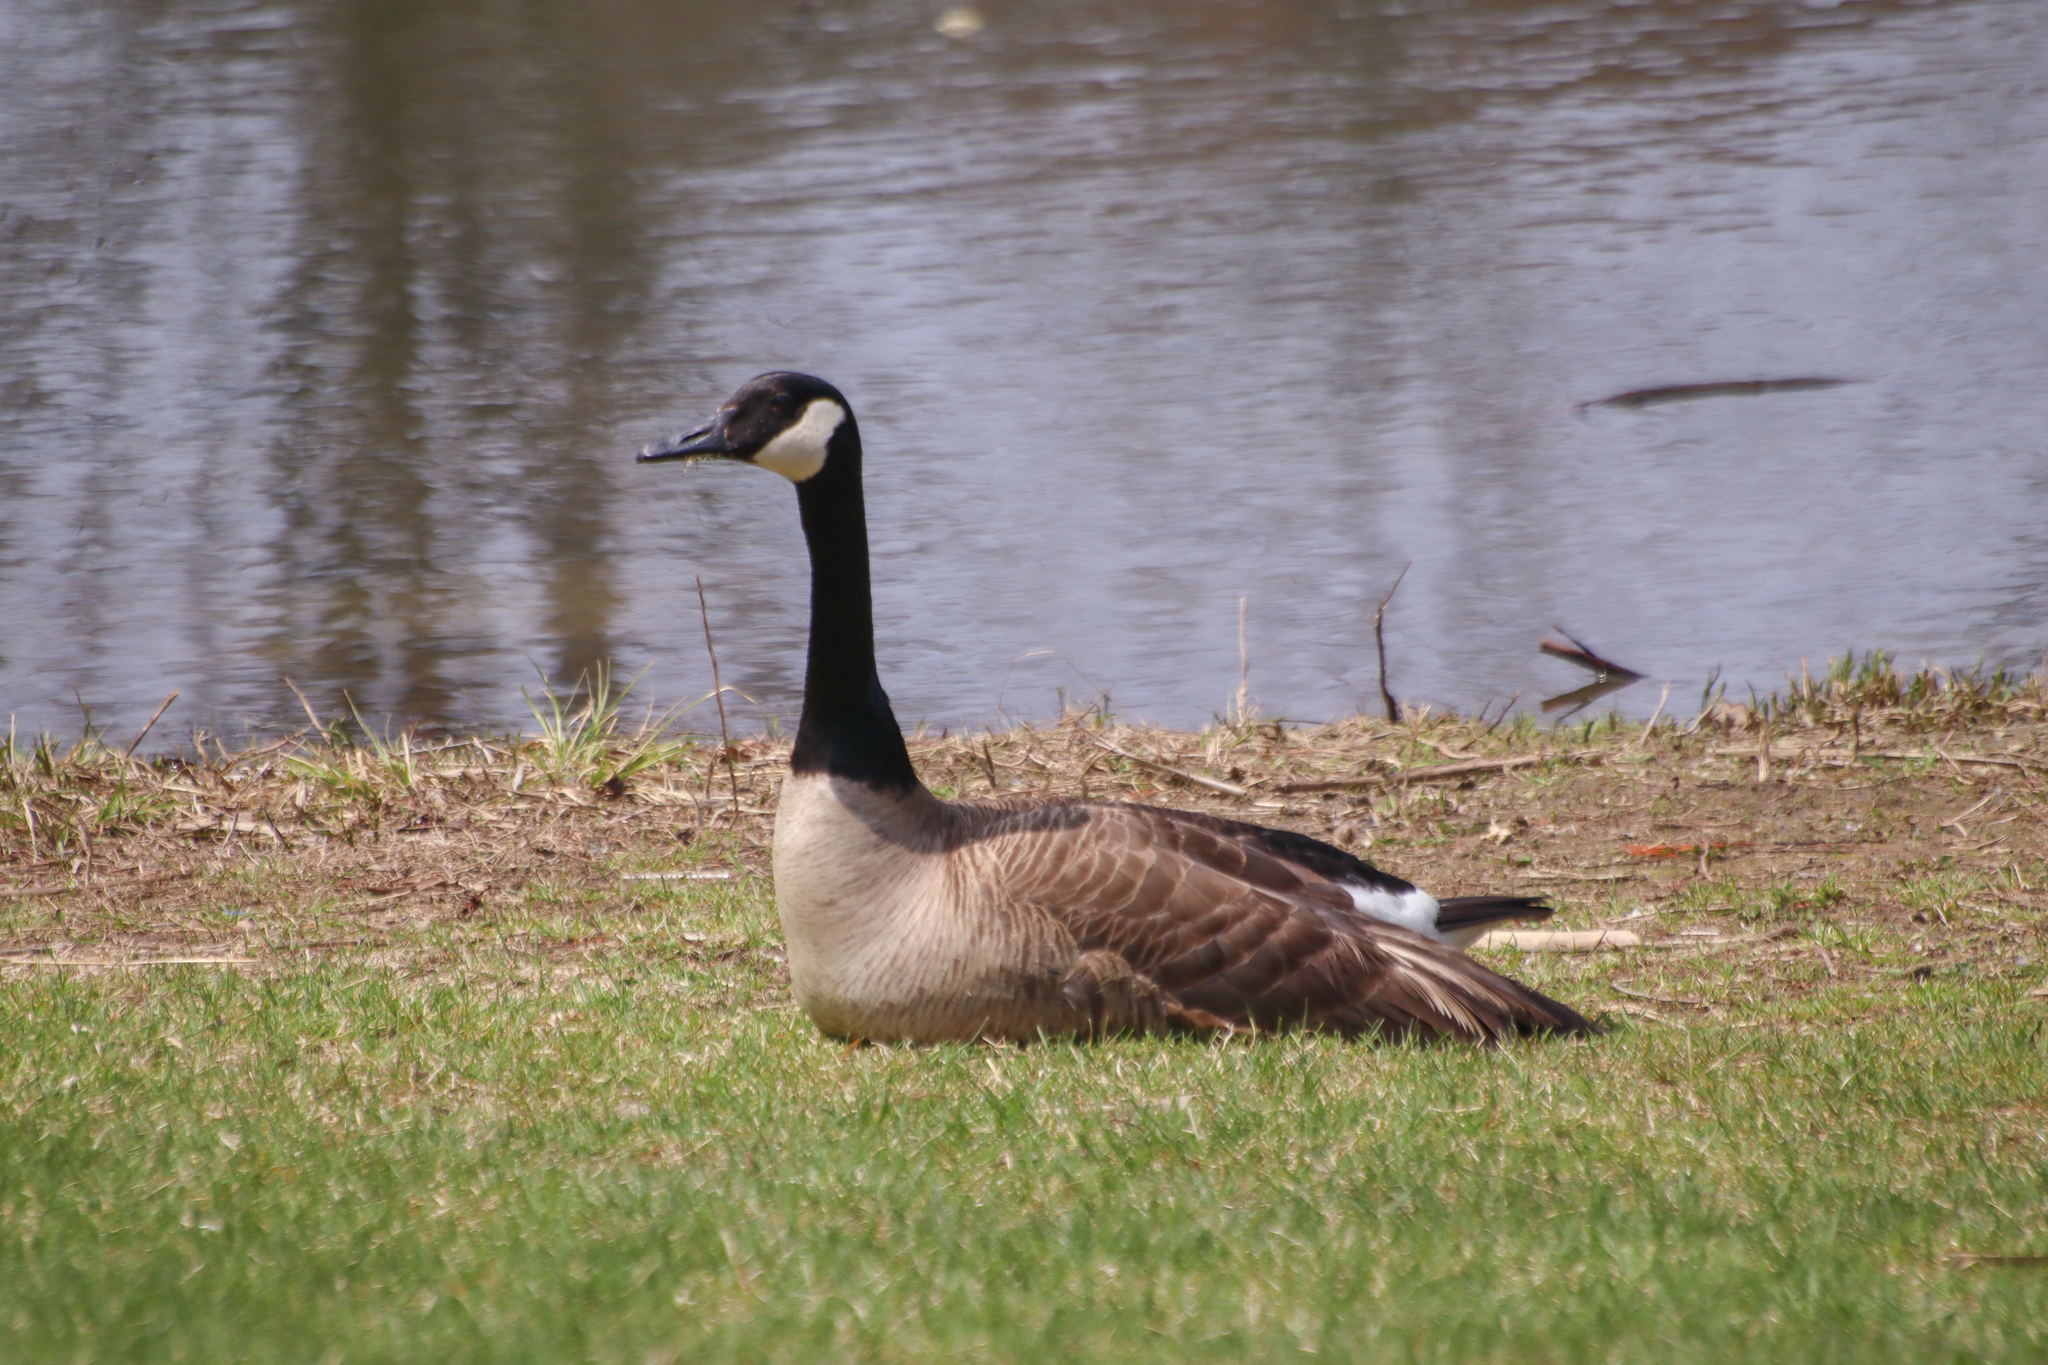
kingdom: Animalia
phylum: Chordata
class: Aves
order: Anseriformes
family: Anatidae
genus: Branta
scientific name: Branta canadensis
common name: Canada goose
